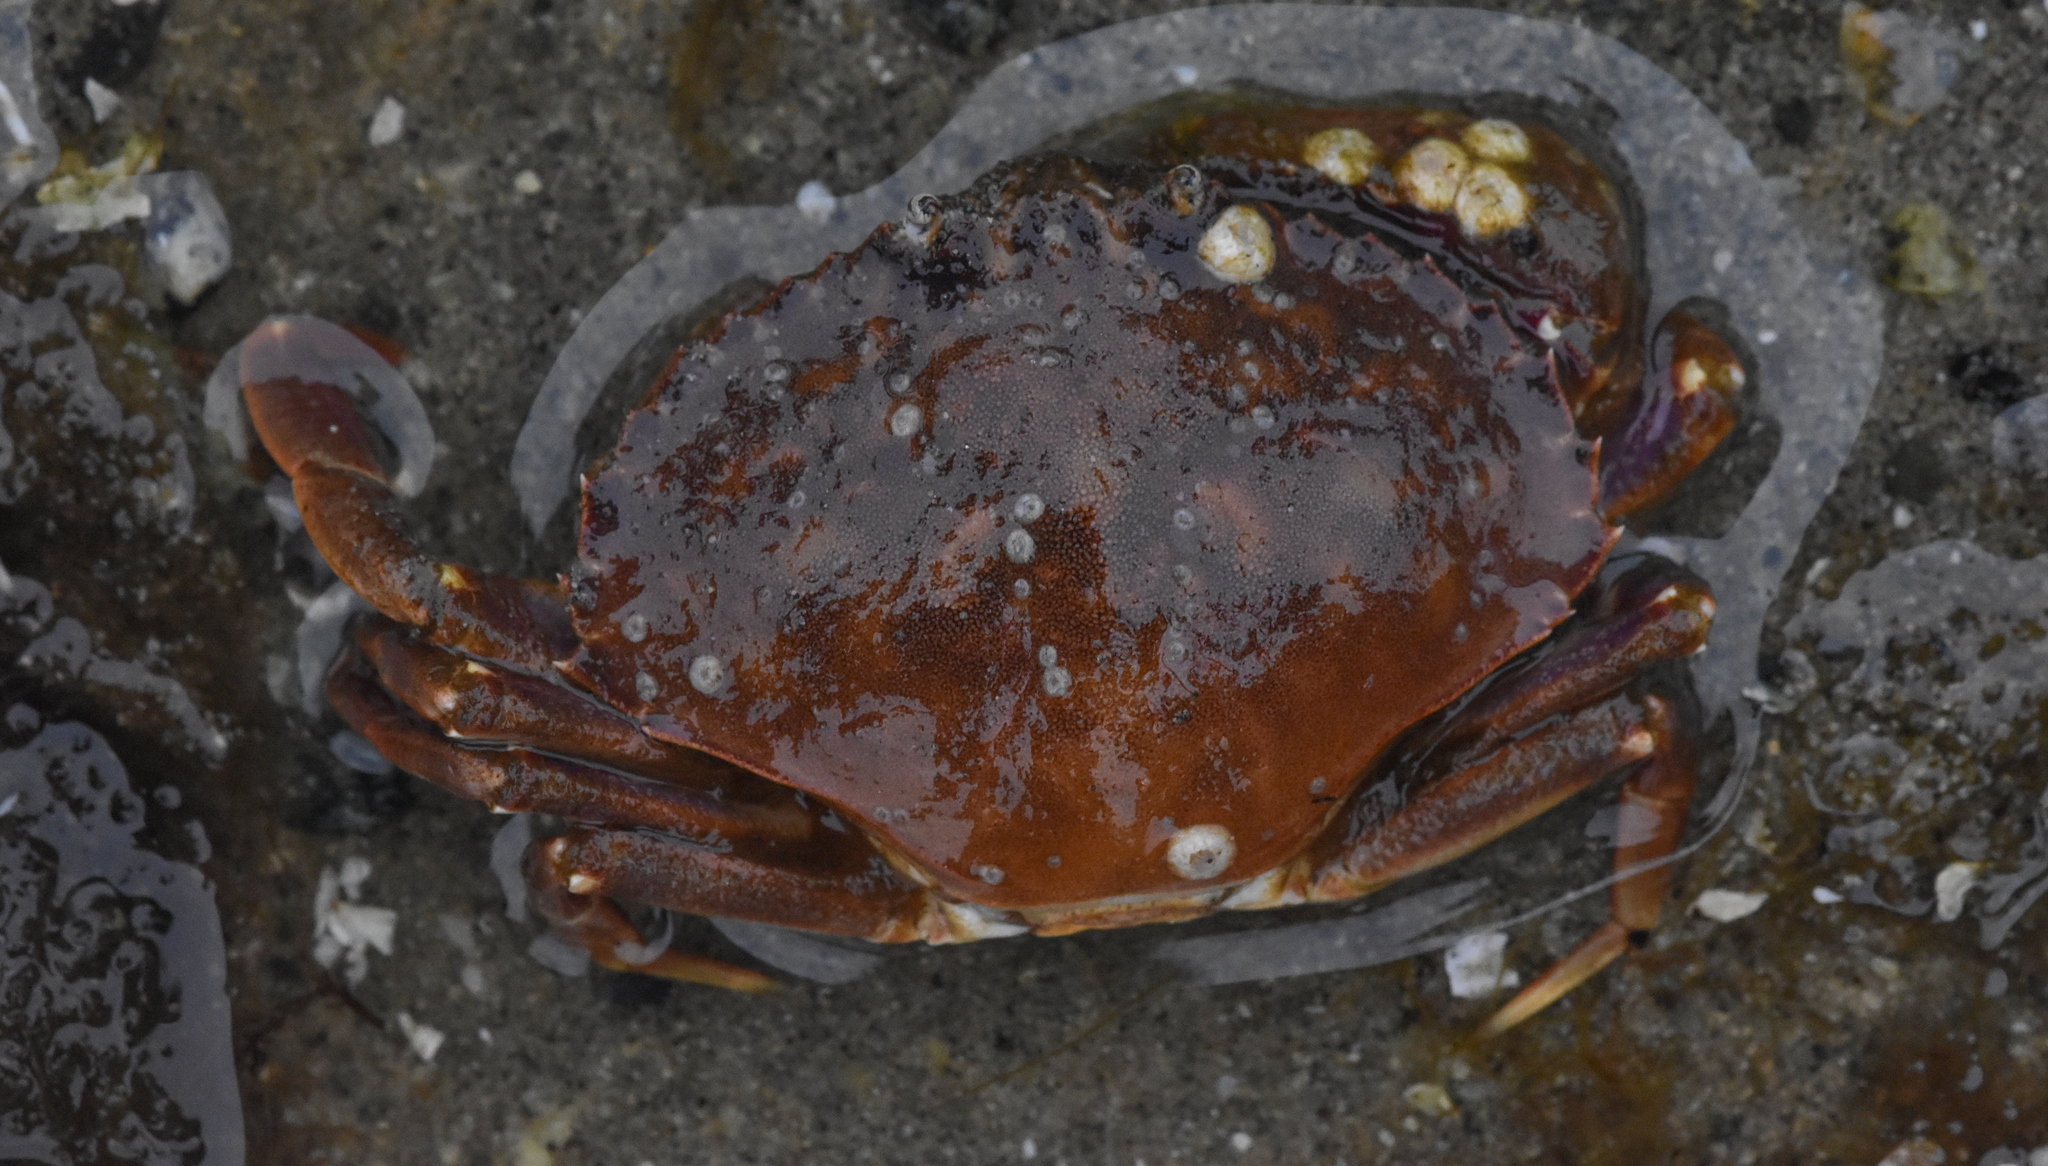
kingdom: Animalia
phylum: Arthropoda
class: Malacostraca
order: Decapoda
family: Cancridae
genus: Metacarcinus
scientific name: Metacarcinus gracilis
